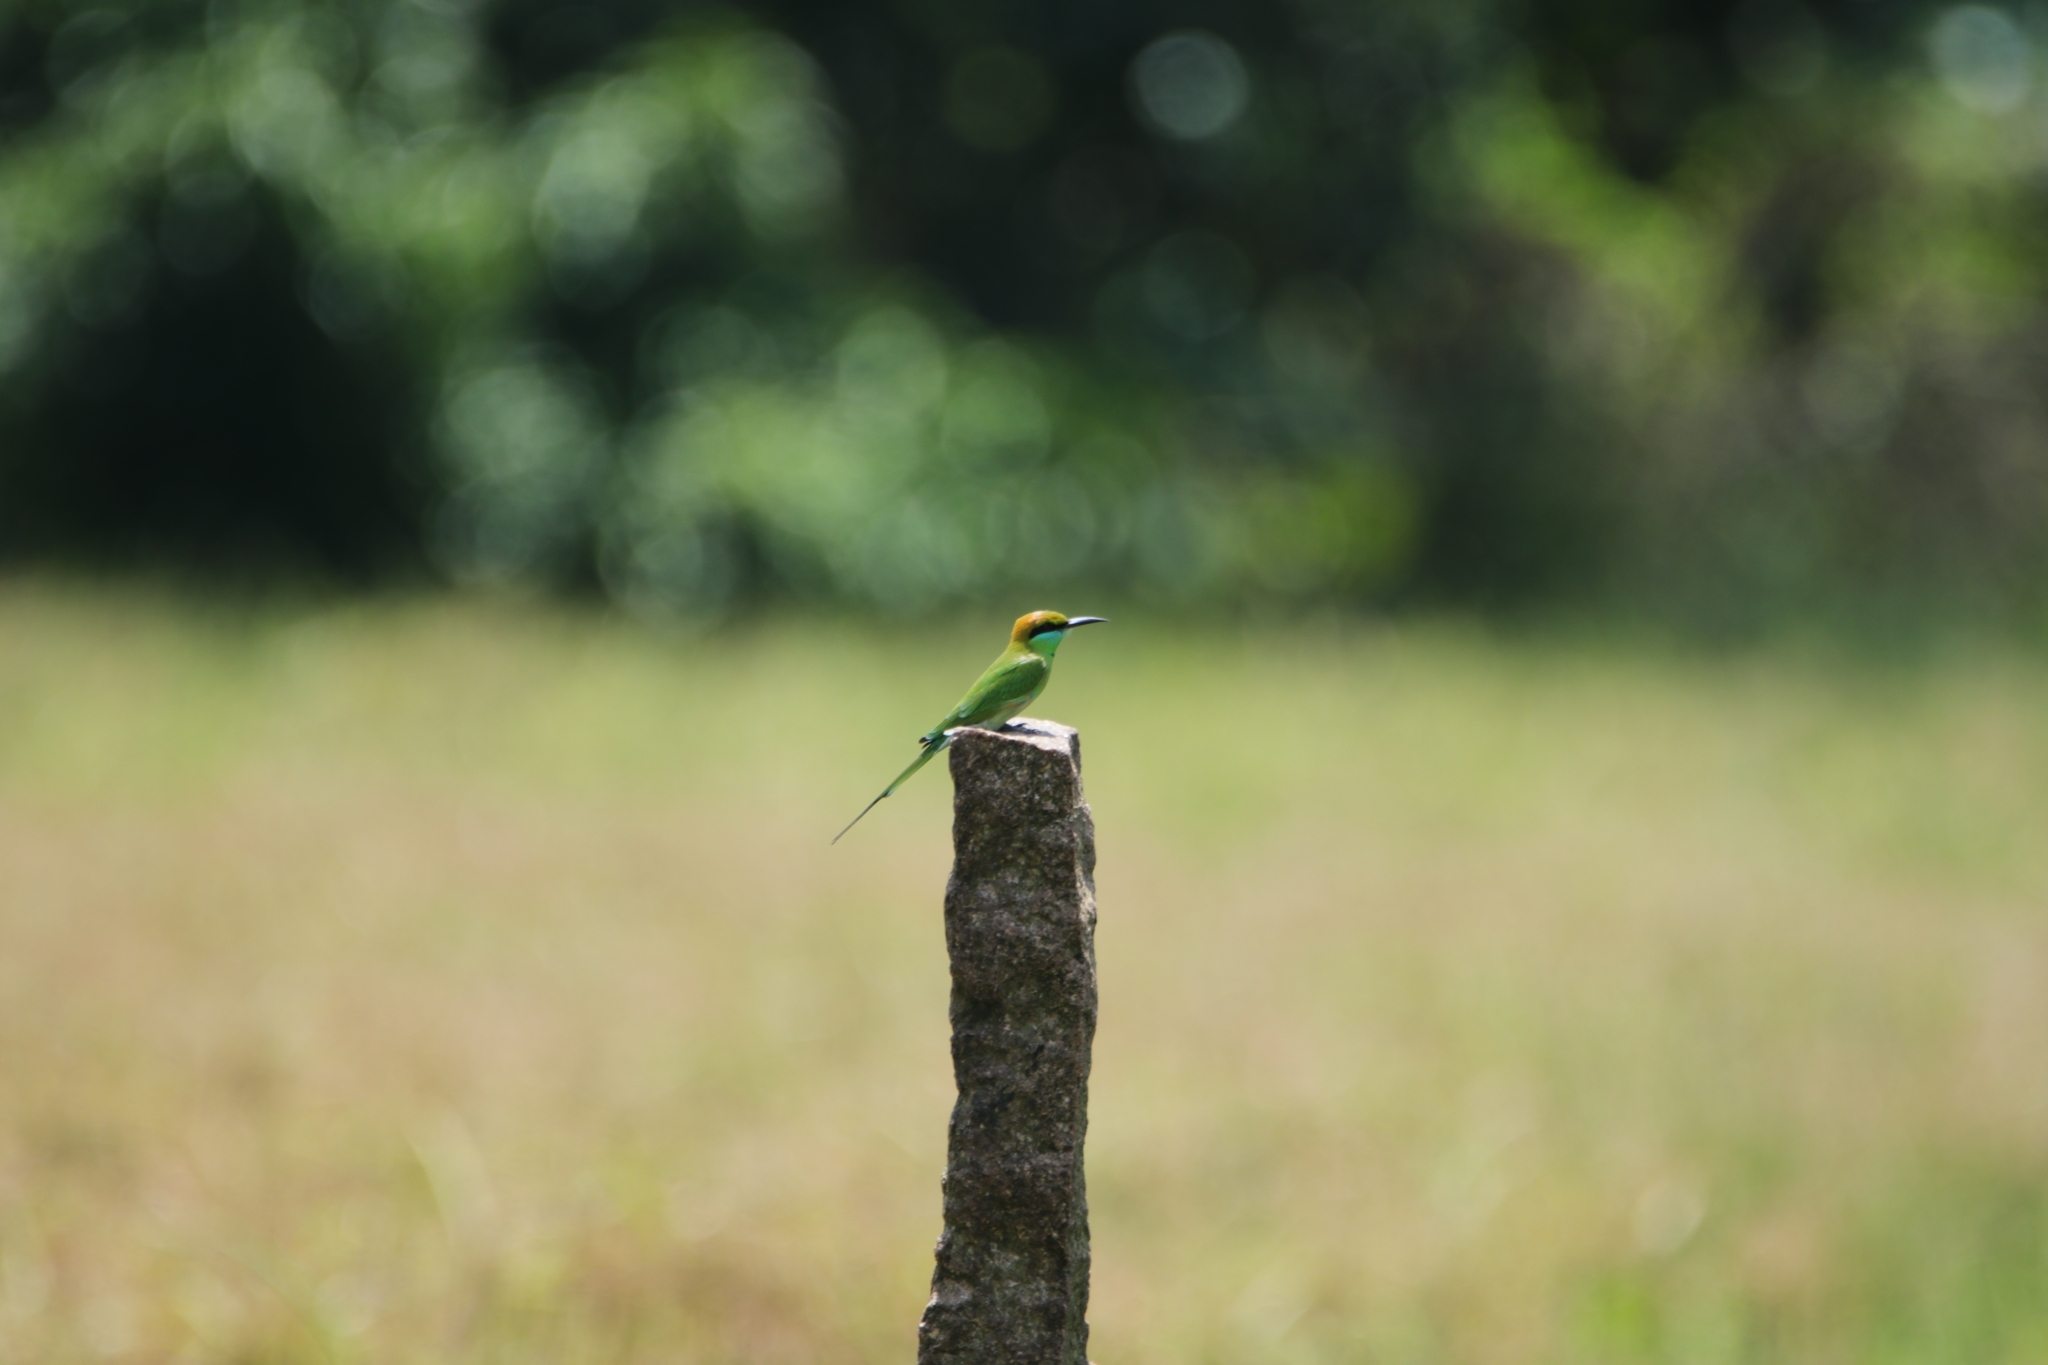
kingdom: Animalia
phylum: Chordata
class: Aves
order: Coraciiformes
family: Meropidae
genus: Merops
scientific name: Merops orientalis
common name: Green bee-eater
